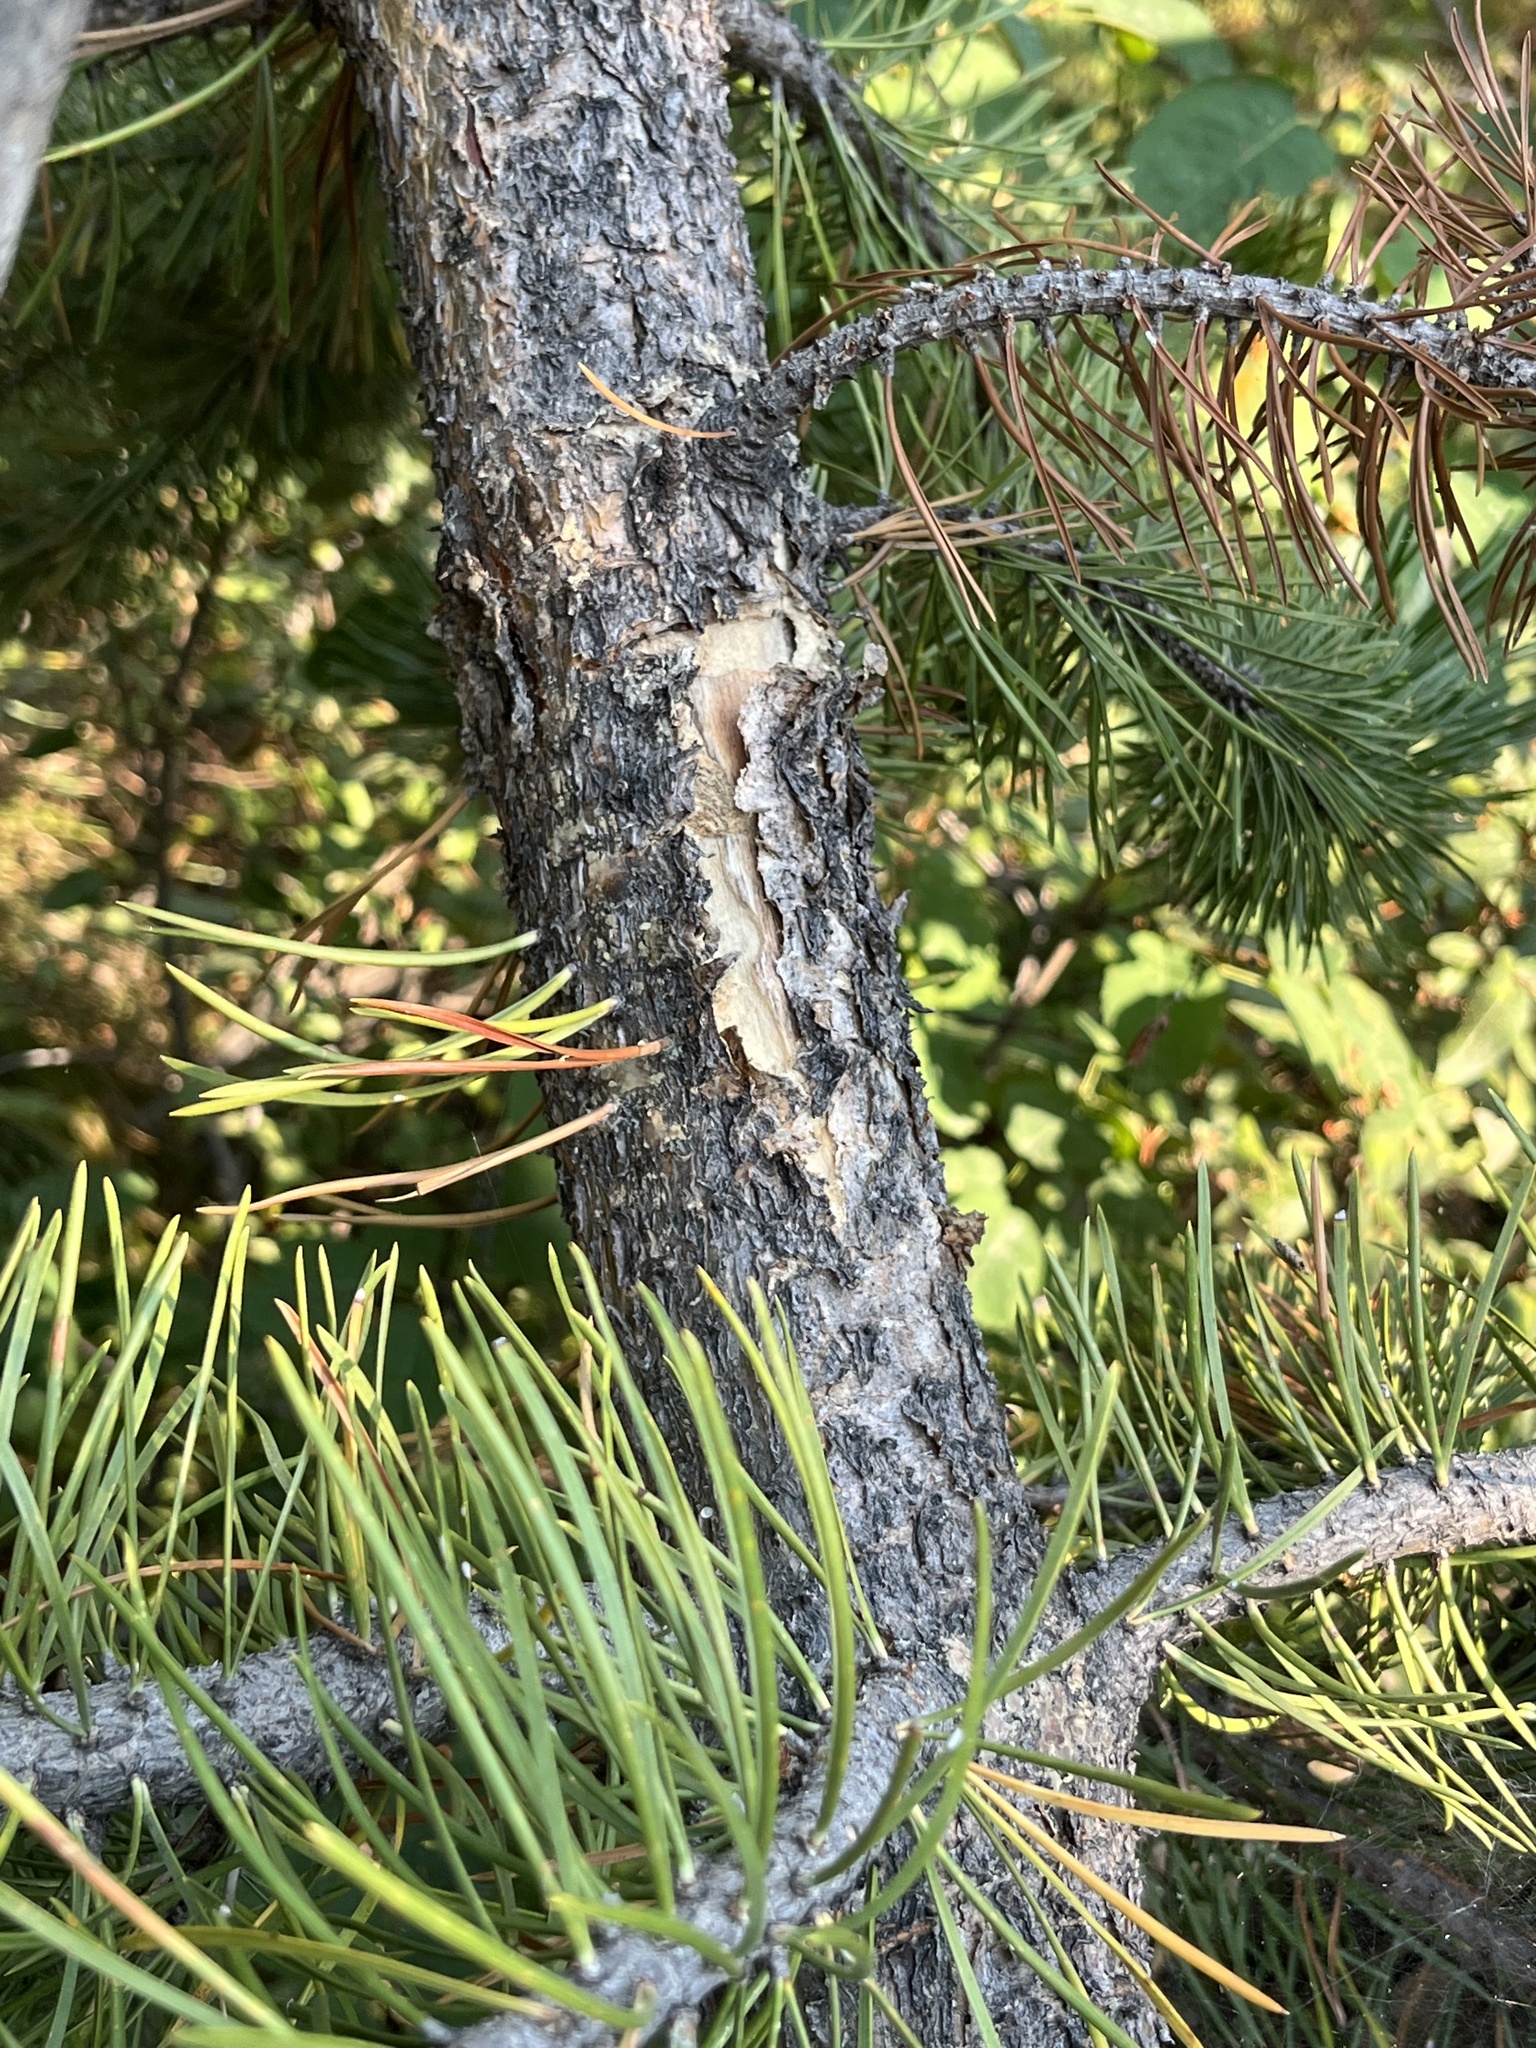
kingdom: Plantae
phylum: Tracheophyta
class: Pinopsida
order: Pinales
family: Pinaceae
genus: Pinus
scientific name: Pinus contorta
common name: Lodgepole pine
